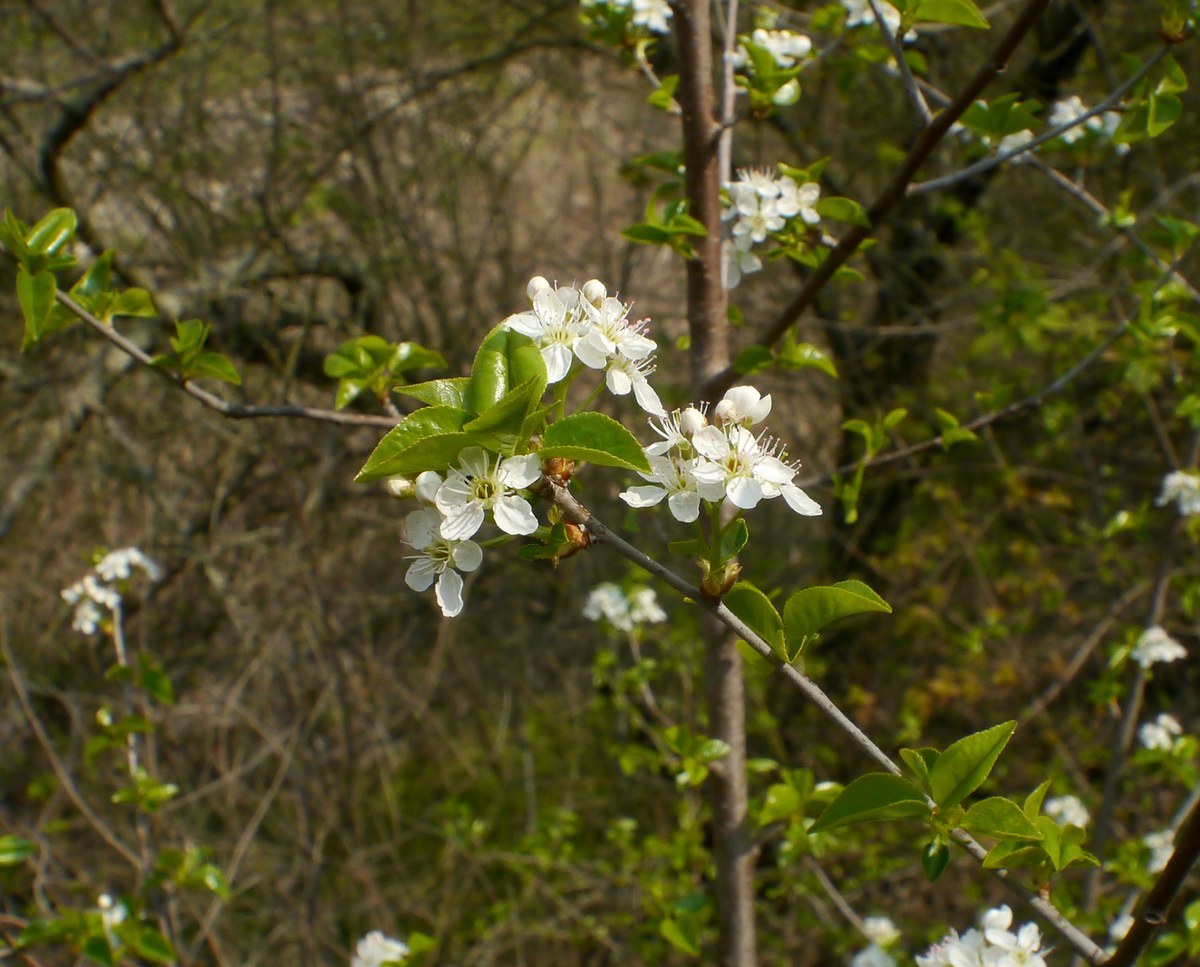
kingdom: Plantae
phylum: Tracheophyta
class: Magnoliopsida
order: Rosales
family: Rosaceae
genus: Prunus
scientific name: Prunus mahaleb
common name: Mahaleb cherry
